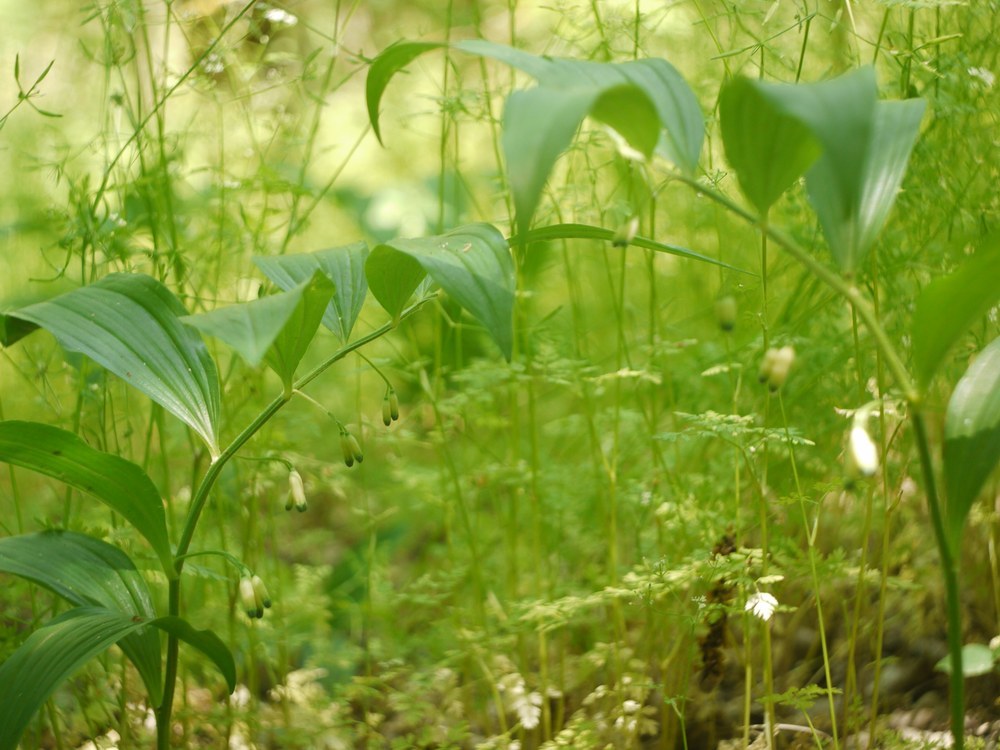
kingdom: Plantae
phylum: Tracheophyta
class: Liliopsida
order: Asparagales
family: Asparagaceae
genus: Polygonatum
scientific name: Polygonatum multiflorum
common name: Solomon's-seal
